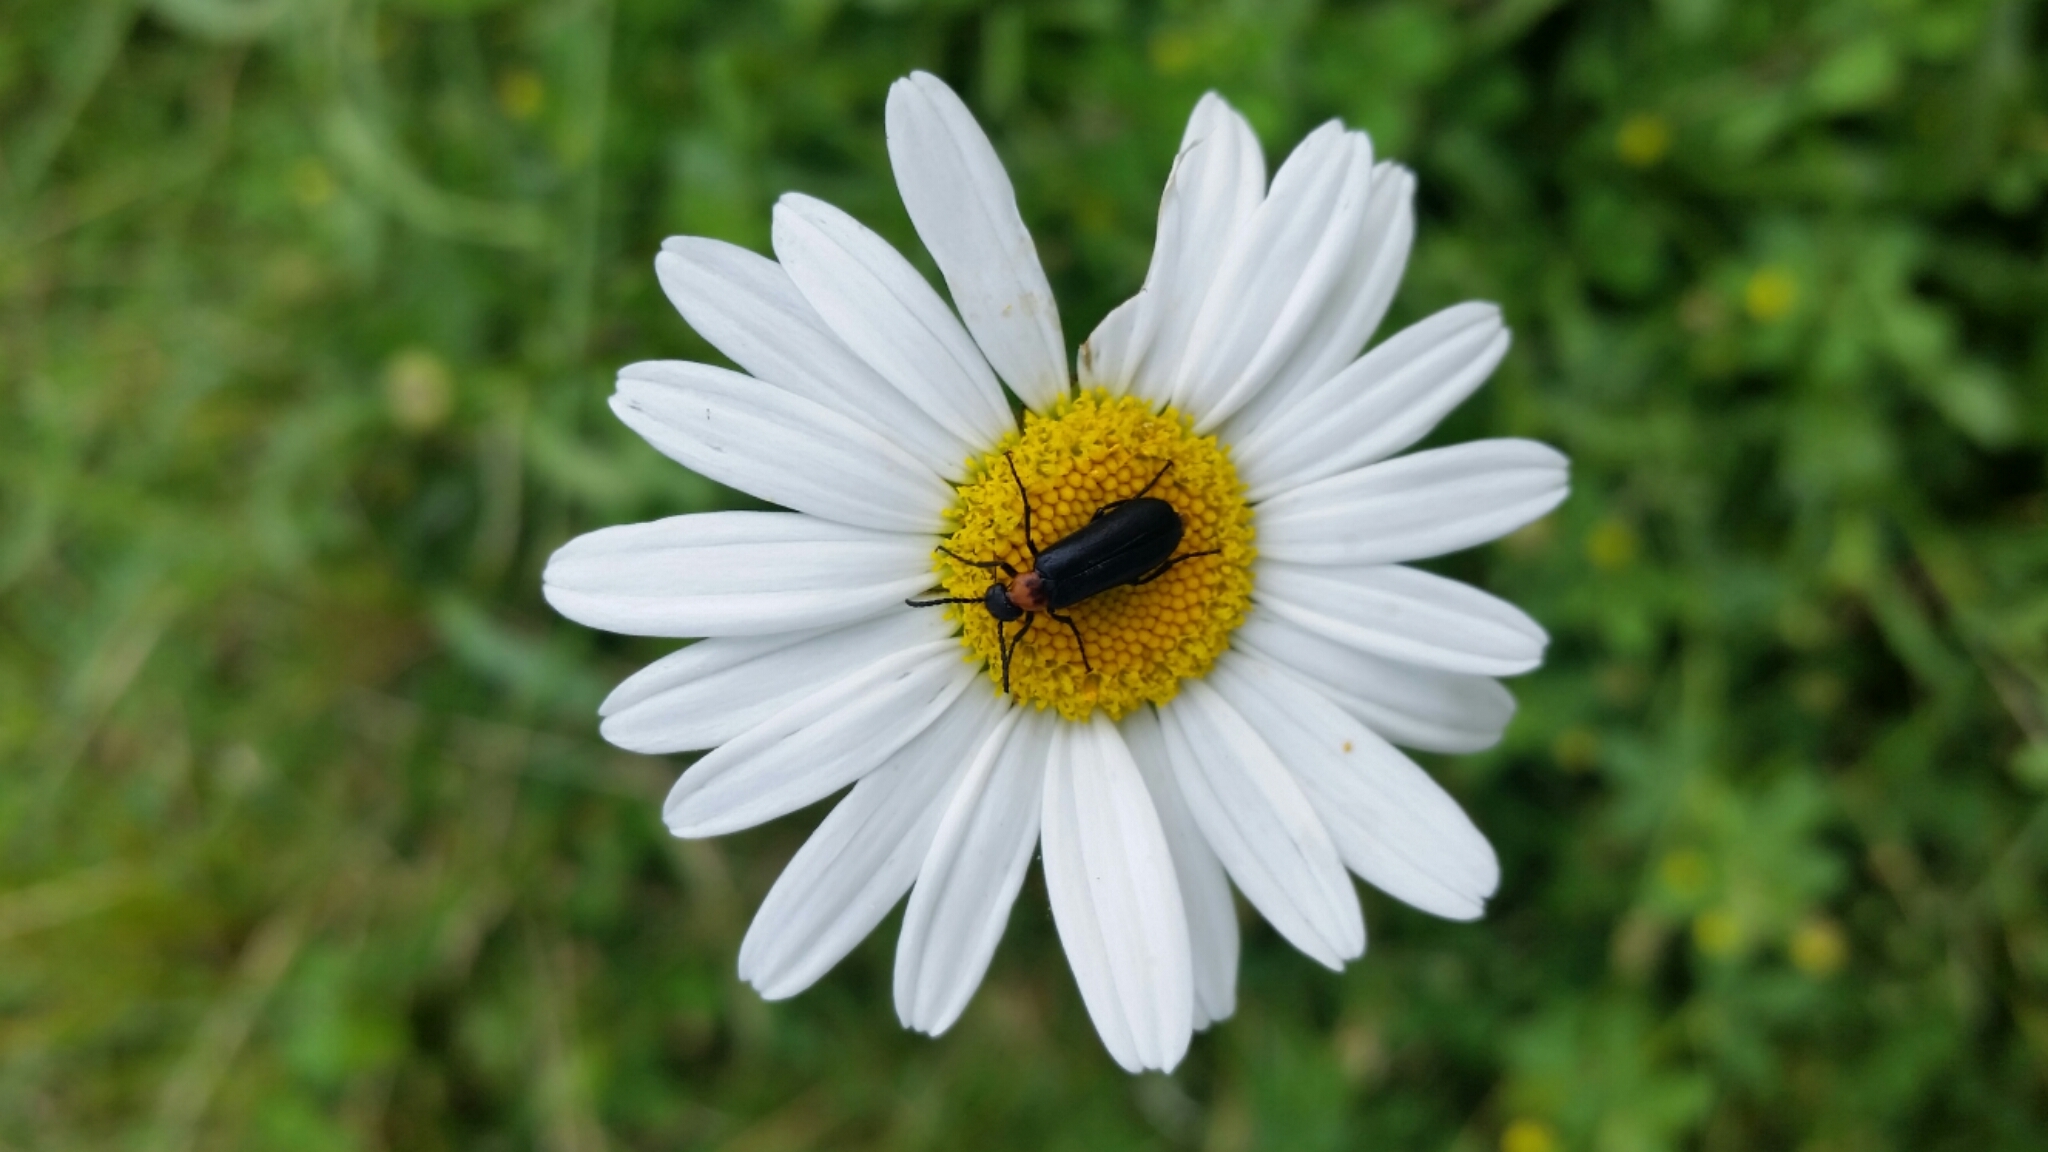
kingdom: Animalia
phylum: Arthropoda
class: Insecta
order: Coleoptera
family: Meloidae
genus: Nemognatha
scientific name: Nemognatha nemorensis
